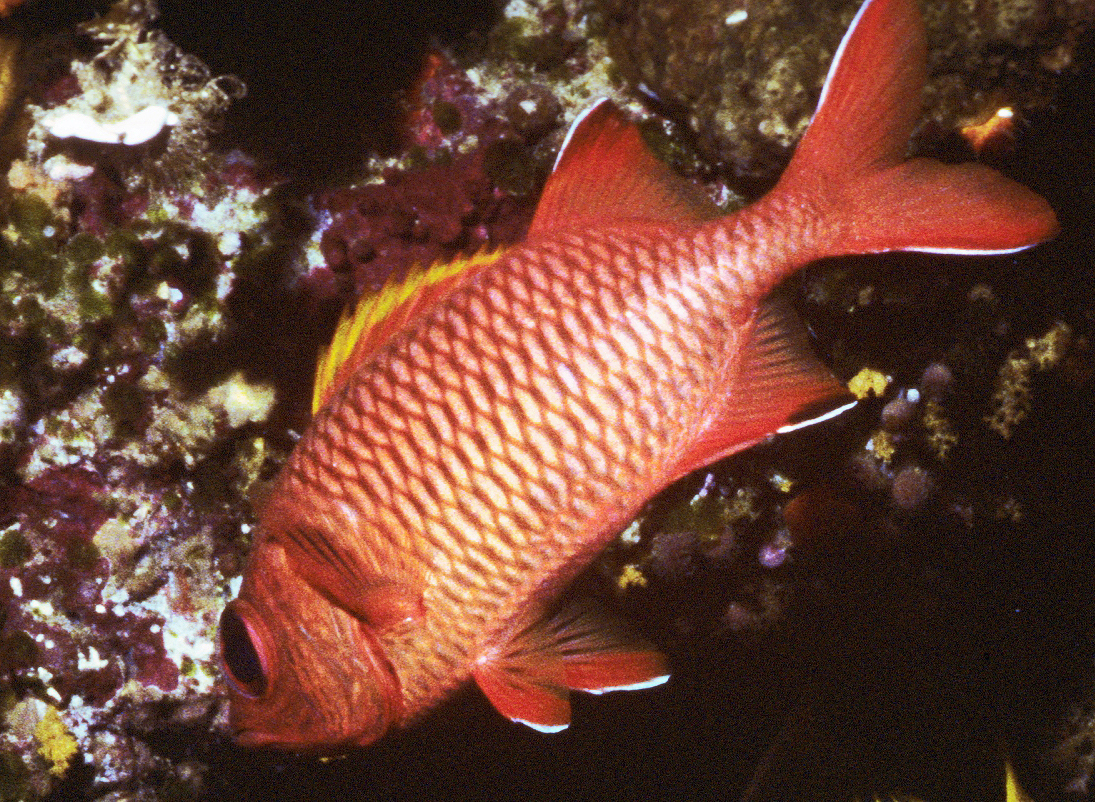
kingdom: Animalia
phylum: Chordata
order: Beryciformes
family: Holocentridae
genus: Myripristis
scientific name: Myripristis berndti
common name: Bigscale soldierfish
